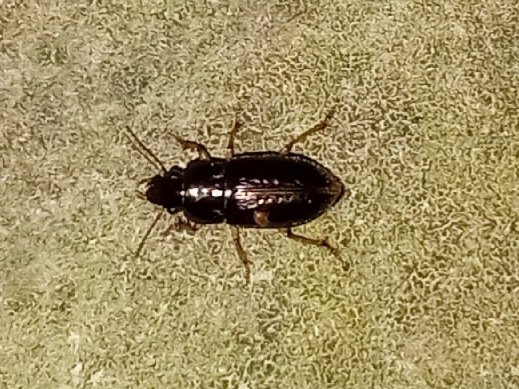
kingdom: Animalia
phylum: Arthropoda
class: Insecta
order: Coleoptera
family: Carabidae
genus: Selenophorus
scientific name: Selenophorus palliatus
